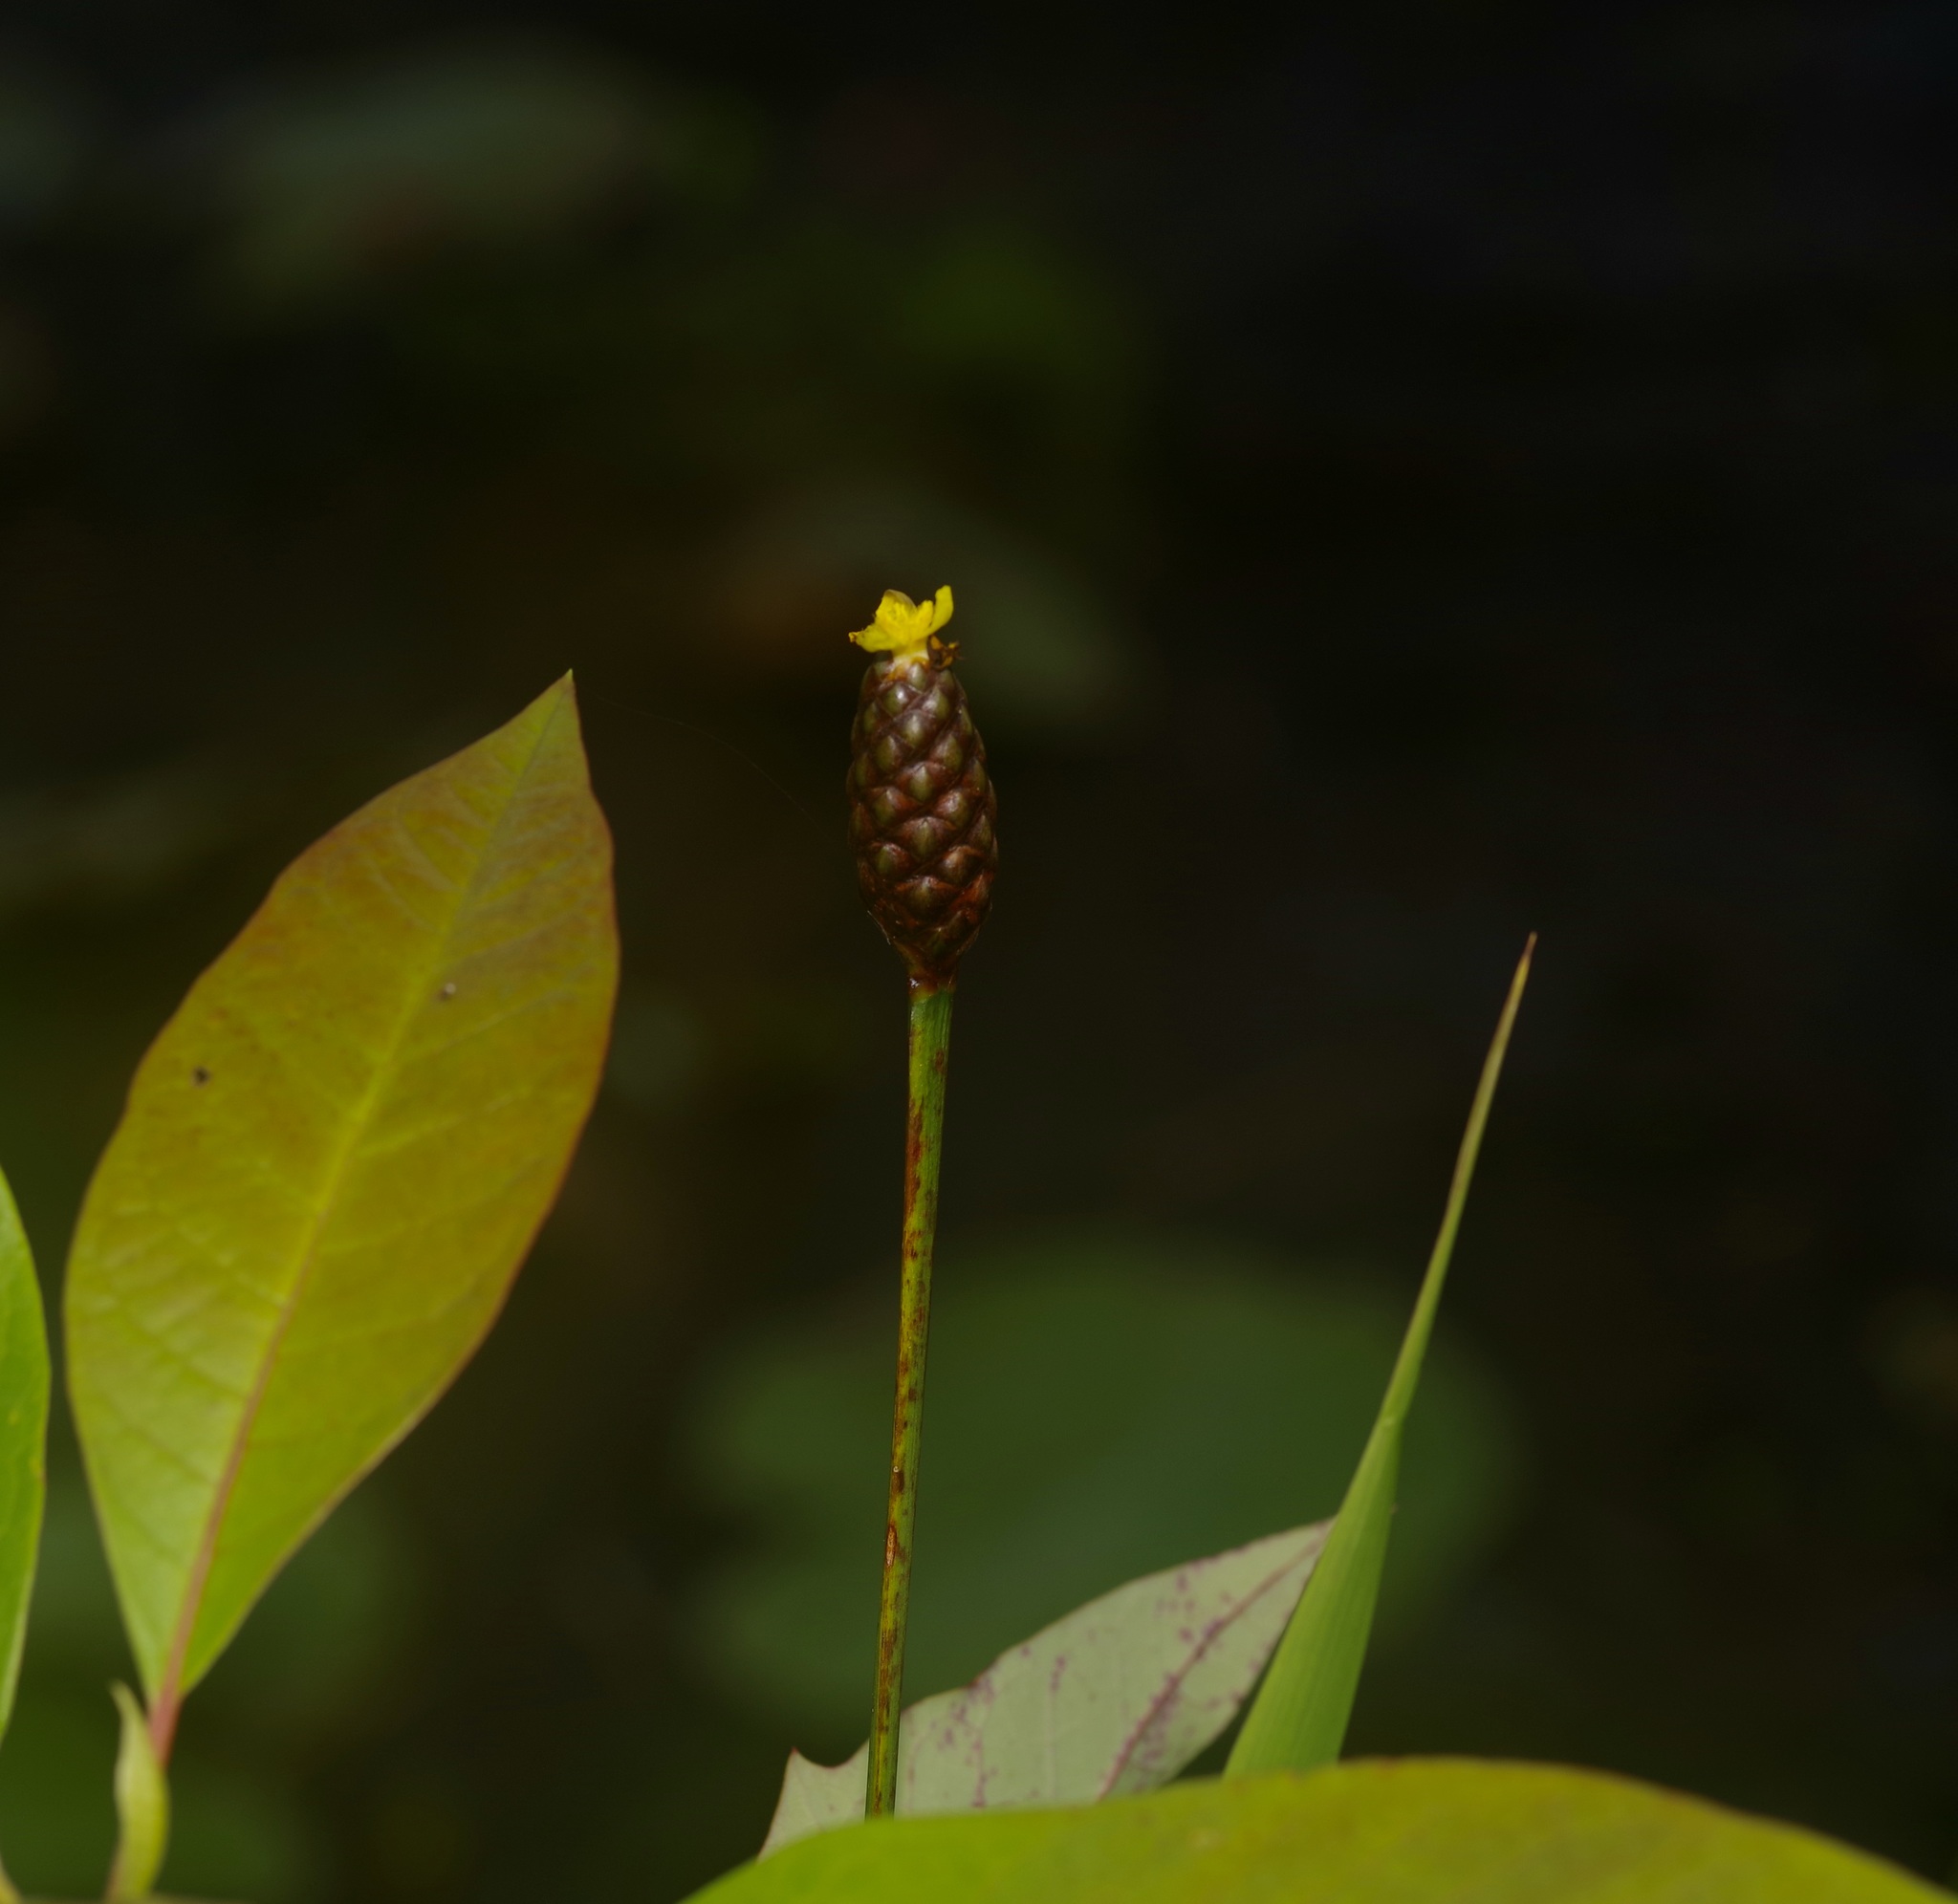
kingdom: Plantae
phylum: Tracheophyta
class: Liliopsida
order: Poales
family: Xyridaceae
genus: Xyris
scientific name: Xyris laxifolia
